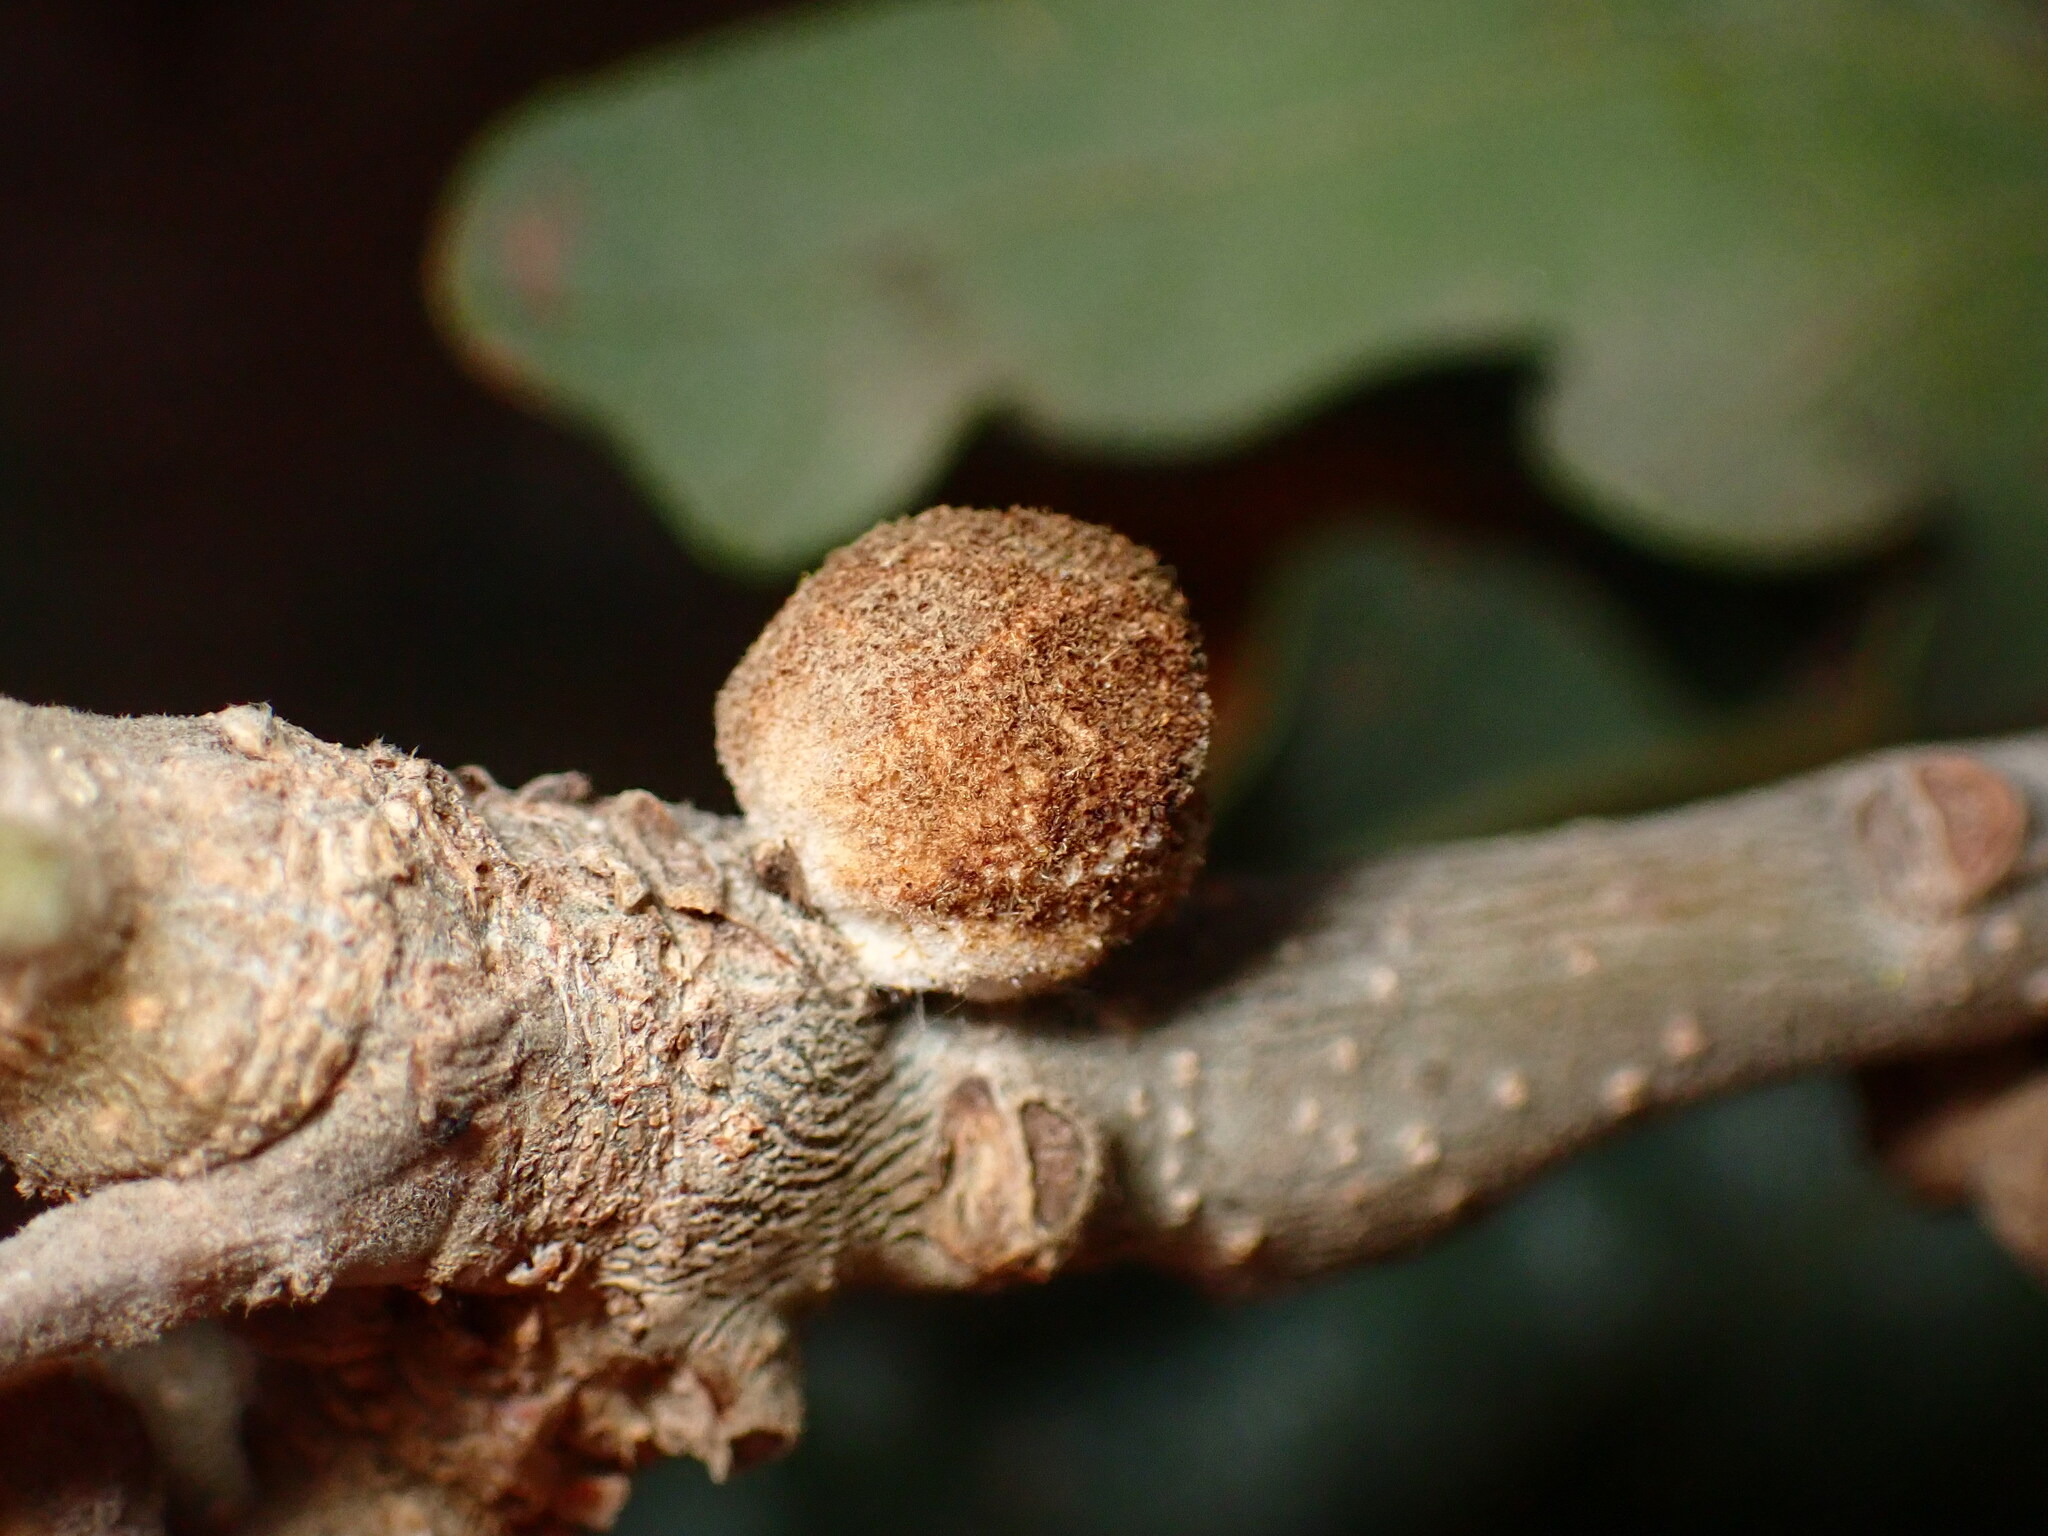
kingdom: Animalia
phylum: Arthropoda
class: Insecta
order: Hymenoptera
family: Cynipidae
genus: Disholcaspis
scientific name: Disholcaspis
